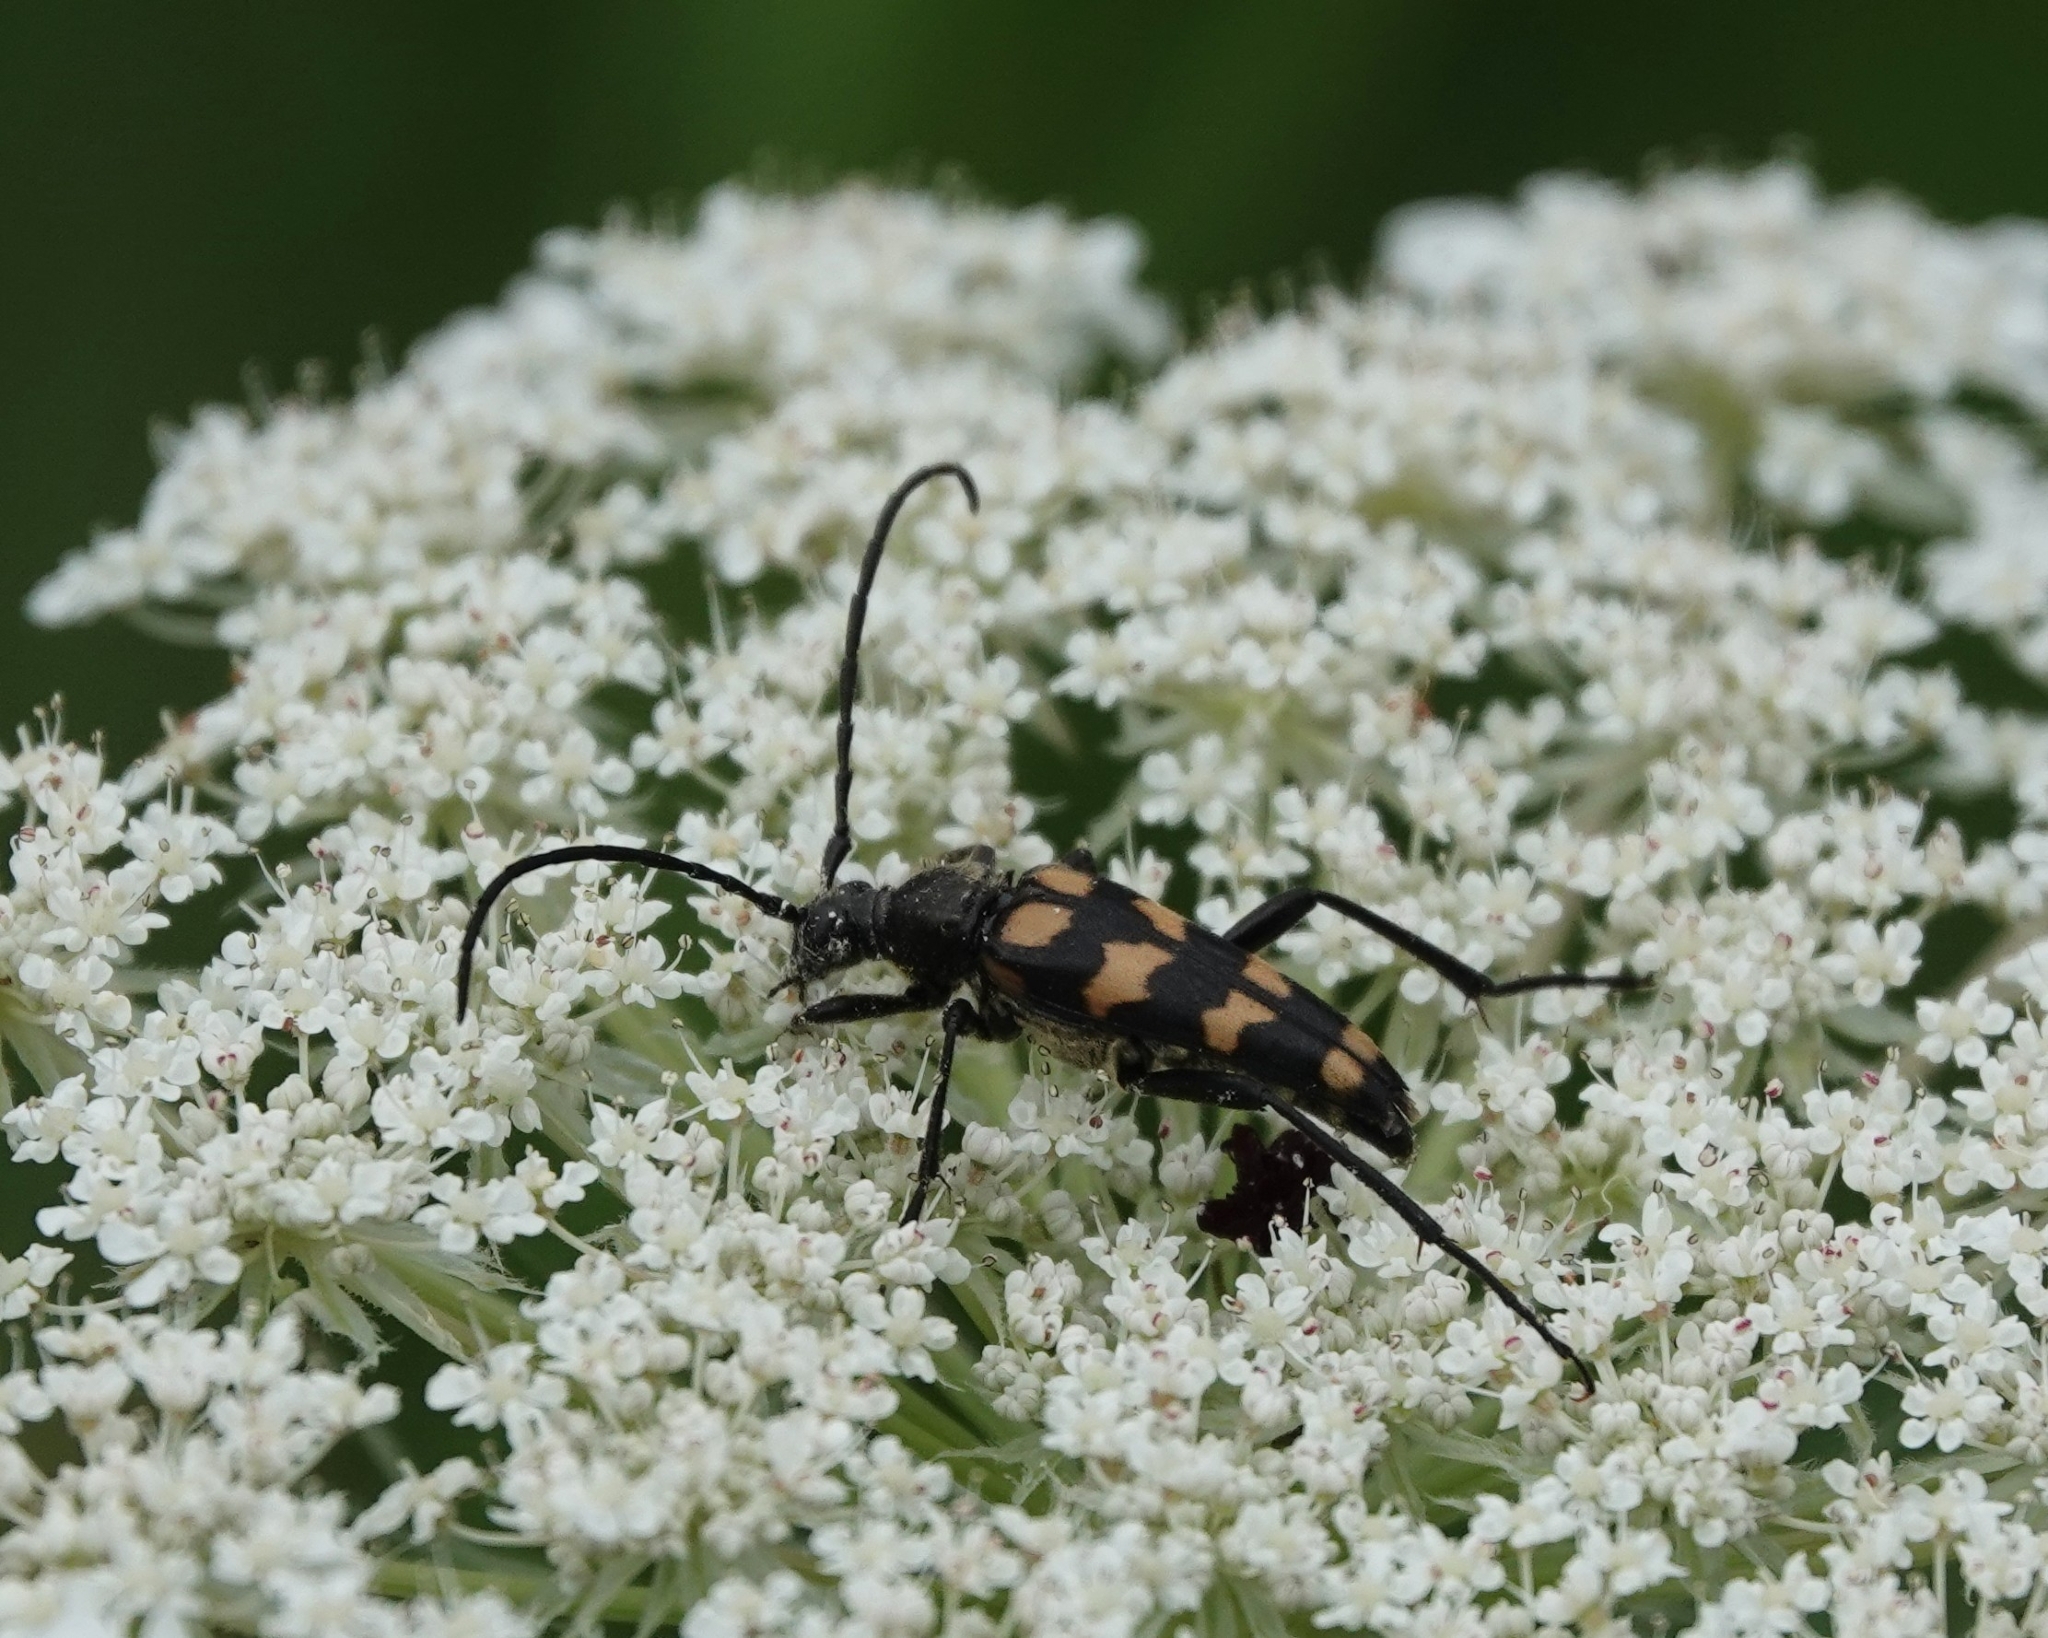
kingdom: Animalia
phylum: Arthropoda
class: Insecta
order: Coleoptera
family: Cerambycidae
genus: Leptura
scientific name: Leptura quadrifasciata
